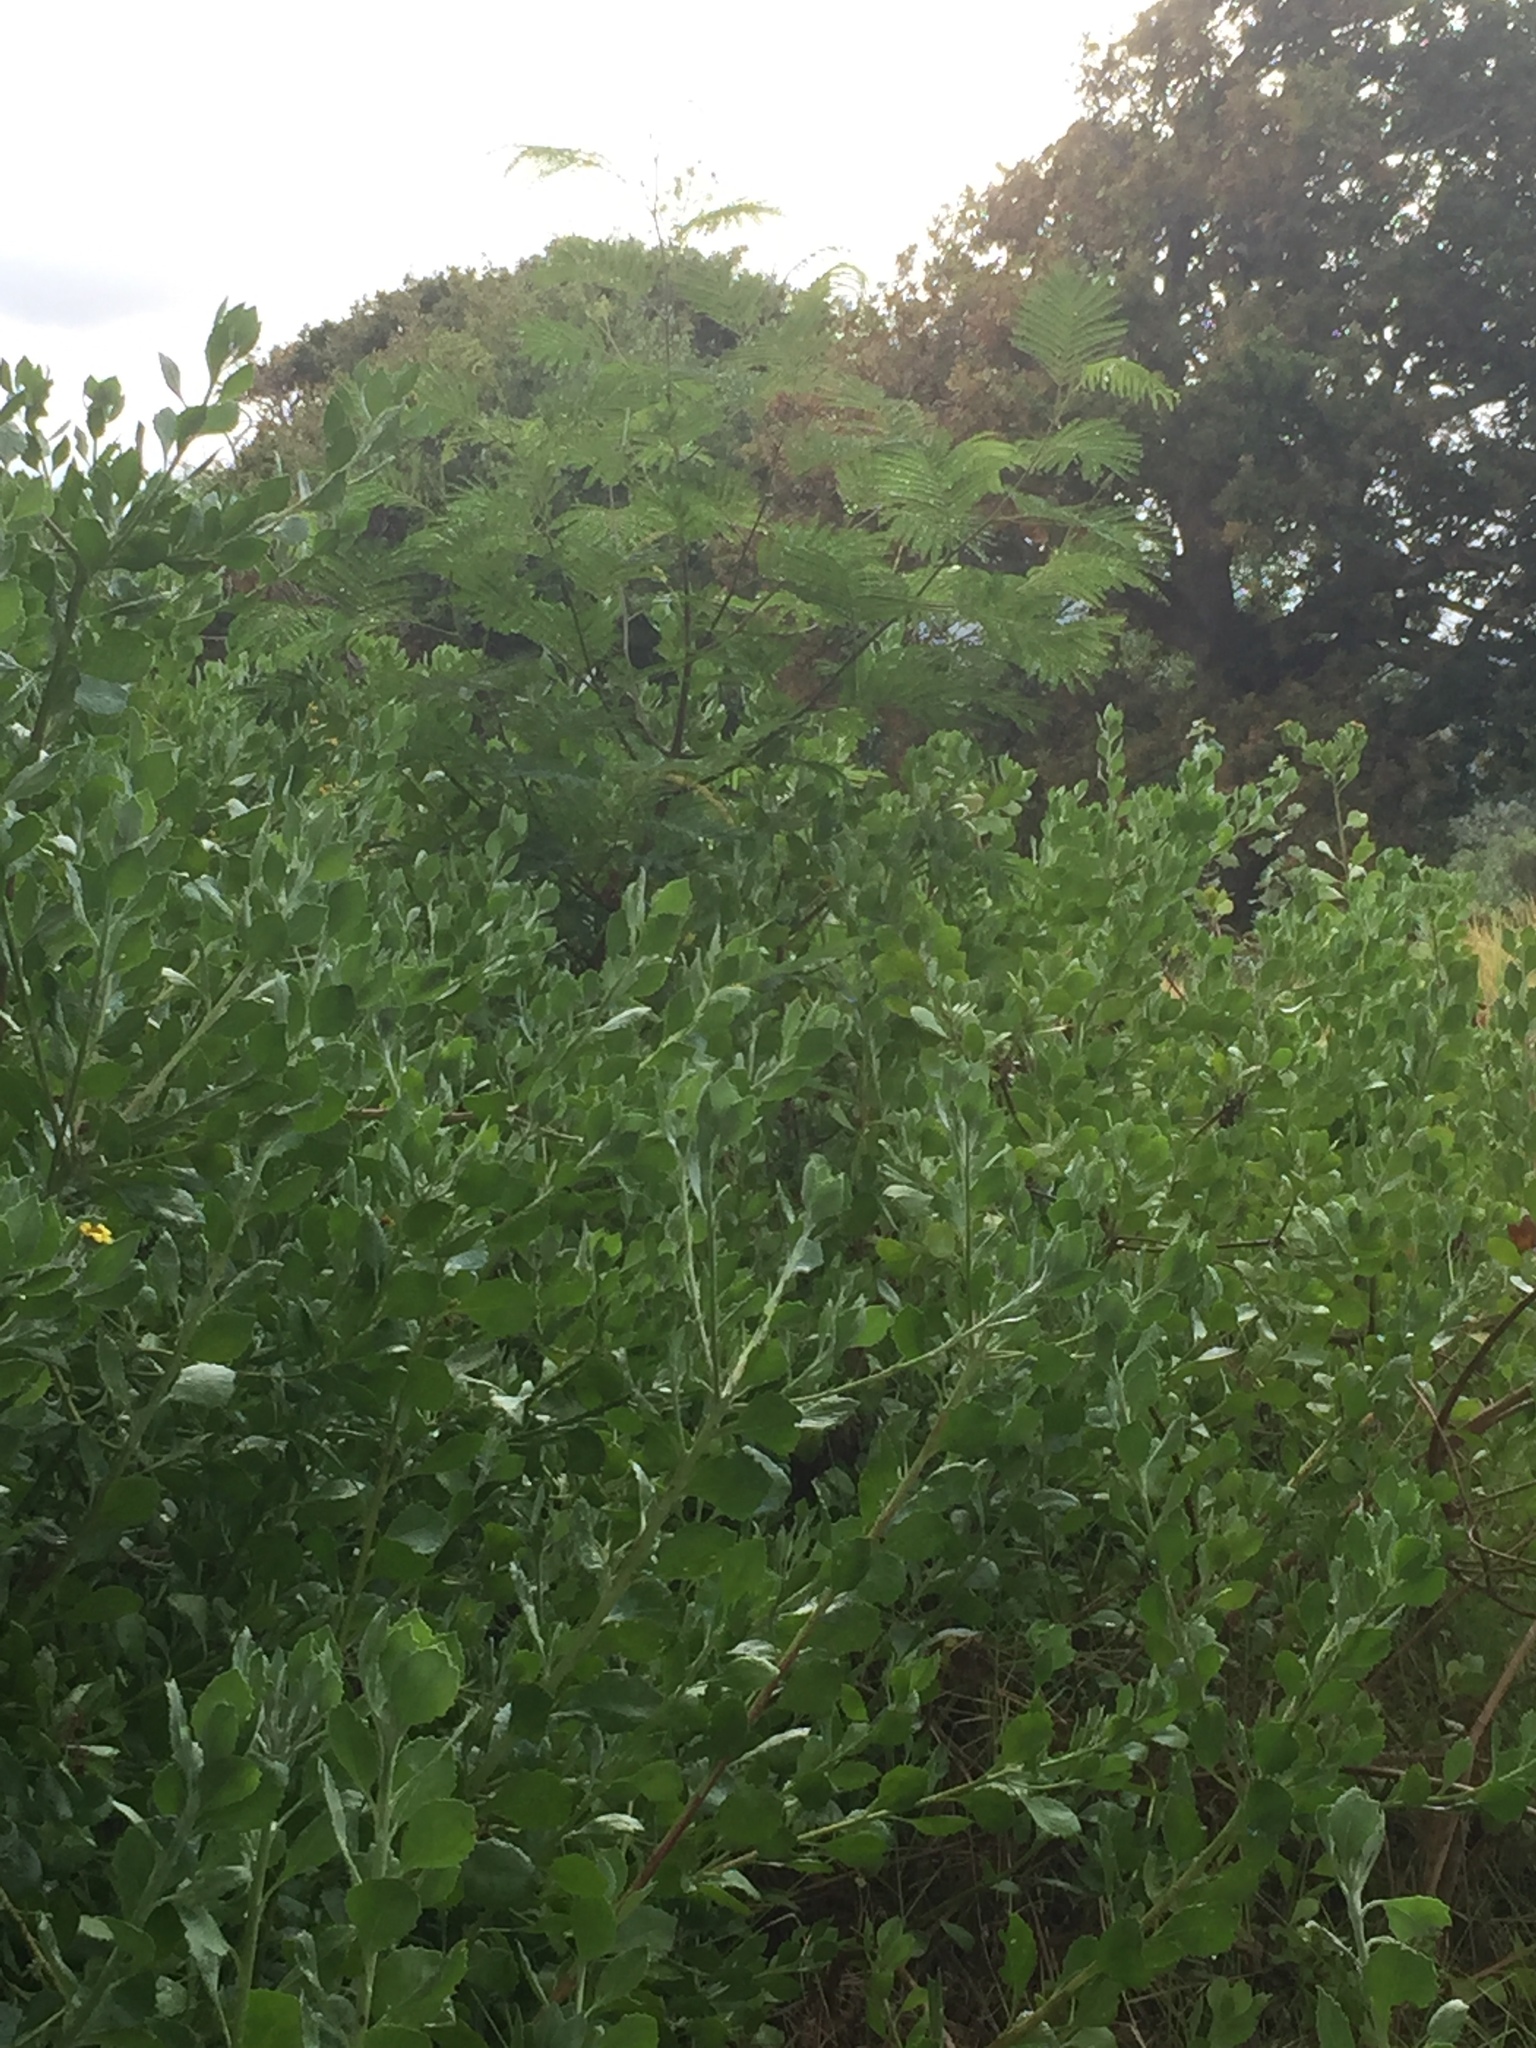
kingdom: Plantae
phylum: Tracheophyta
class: Magnoliopsida
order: Asterales
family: Asteraceae
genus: Osteospermum
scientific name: Osteospermum moniliferum
